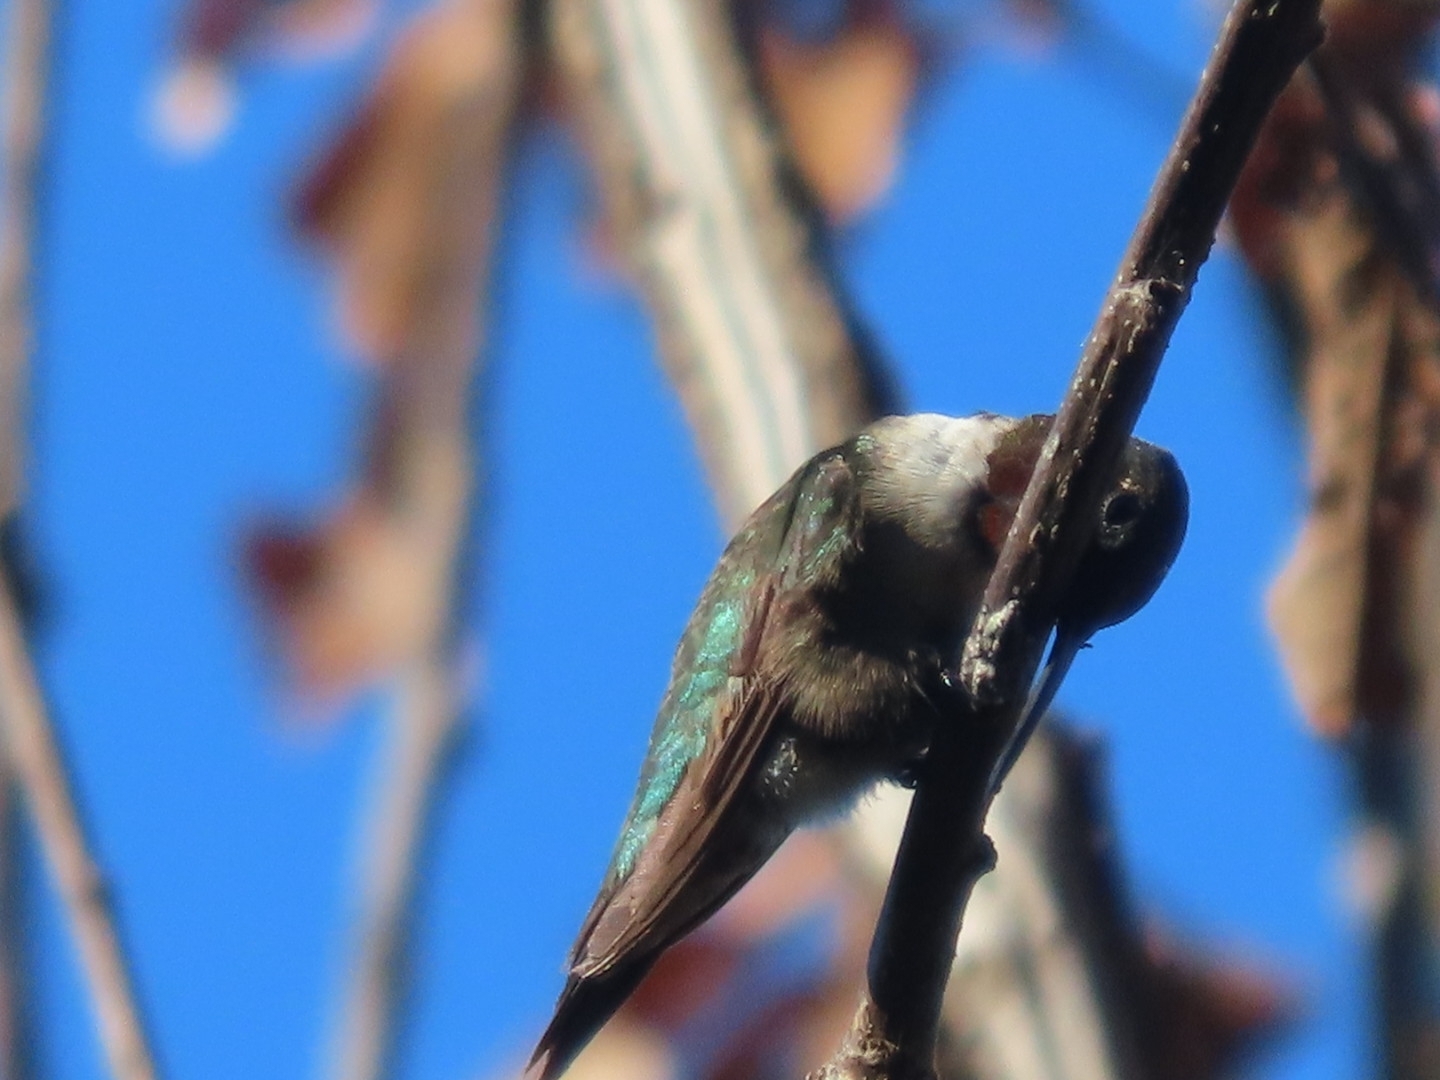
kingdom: Animalia
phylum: Chordata
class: Aves
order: Apodiformes
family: Trochilidae
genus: Archilochus
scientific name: Archilochus colubris
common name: Ruby-throated hummingbird
